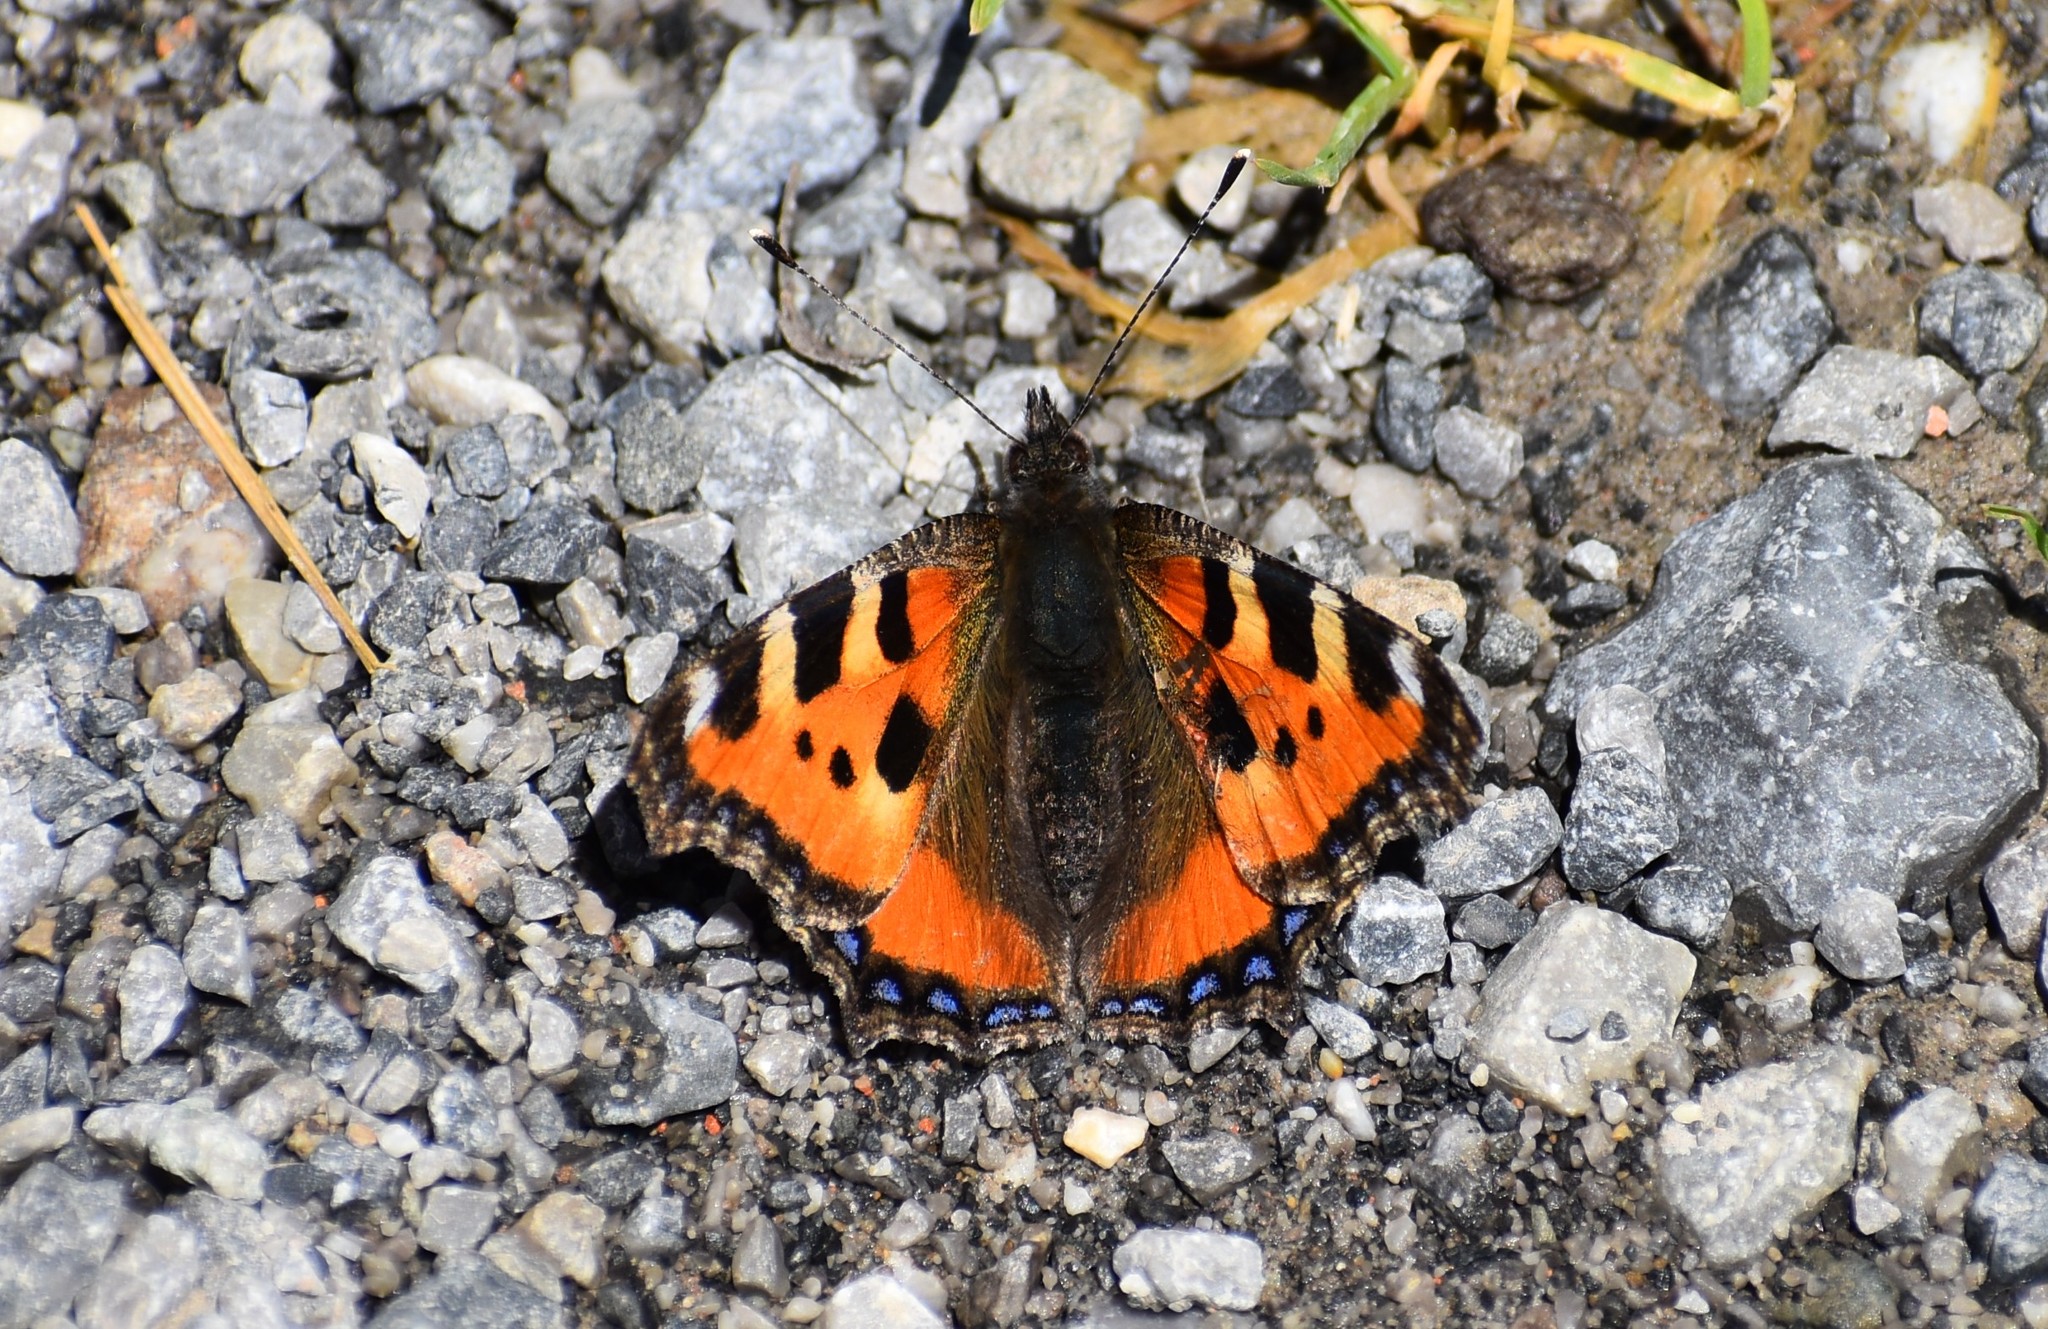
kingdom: Animalia
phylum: Arthropoda
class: Insecta
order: Lepidoptera
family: Nymphalidae
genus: Aglais
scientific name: Aglais urticae
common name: Small tortoiseshell
